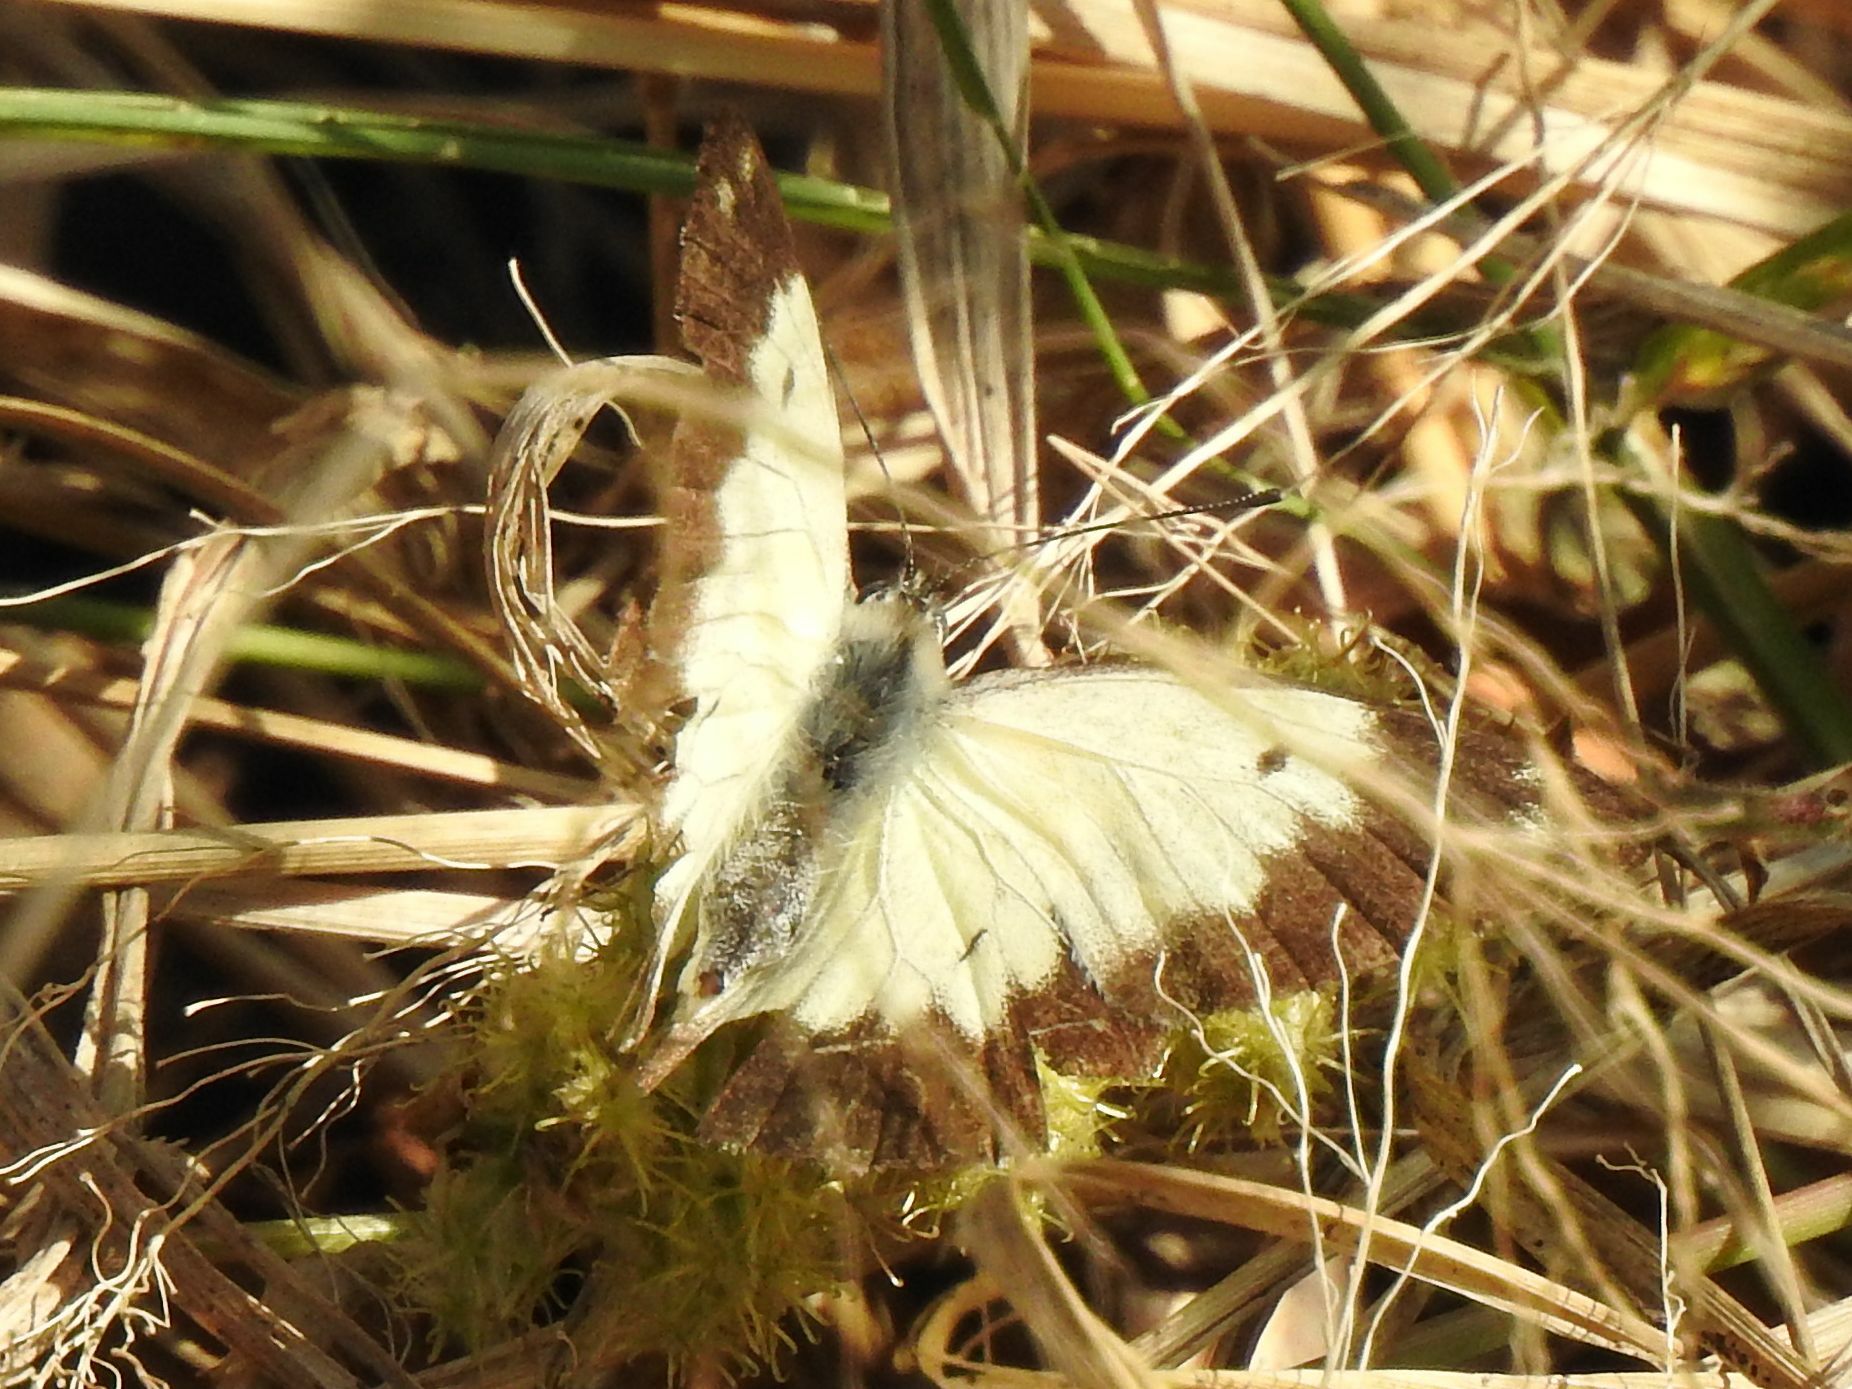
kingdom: Animalia
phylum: Arthropoda
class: Insecta
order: Lepidoptera
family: Pieridae
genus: Belenois
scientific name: Belenois creona
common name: African caper white
